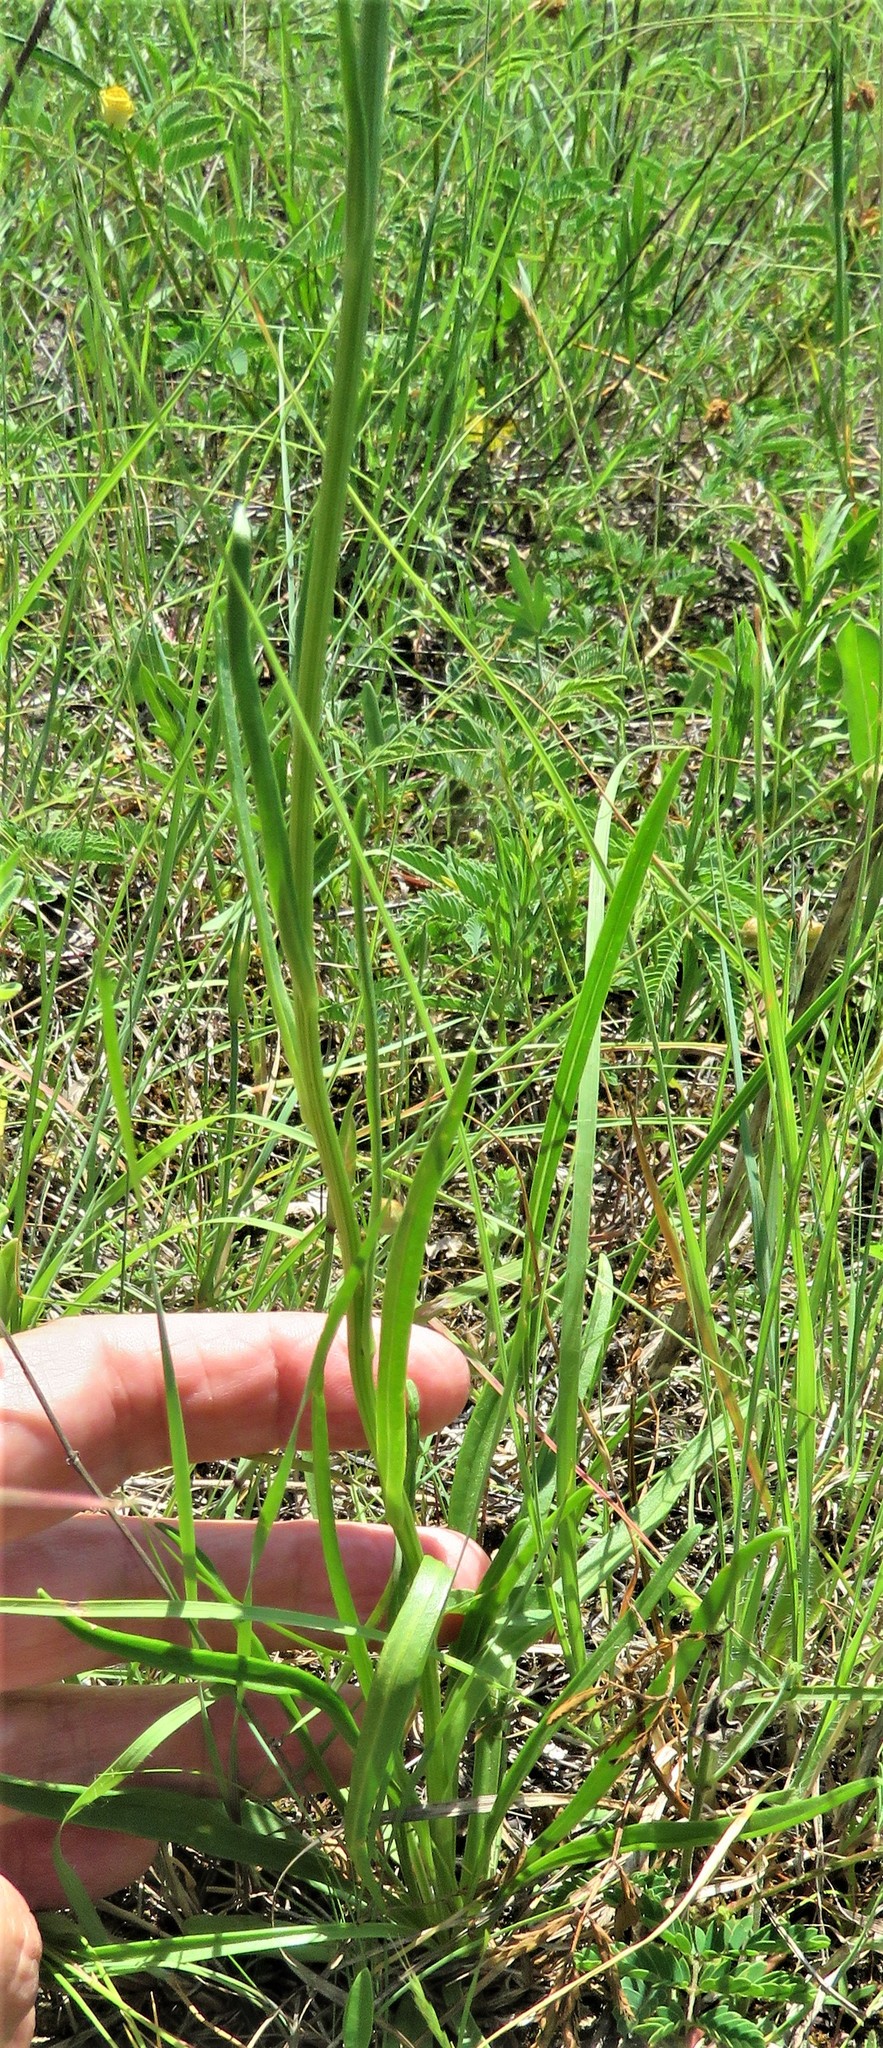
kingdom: Plantae
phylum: Tracheophyta
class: Magnoliopsida
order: Asterales
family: Asteraceae
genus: Marshallia
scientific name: Marshallia caespitosa
